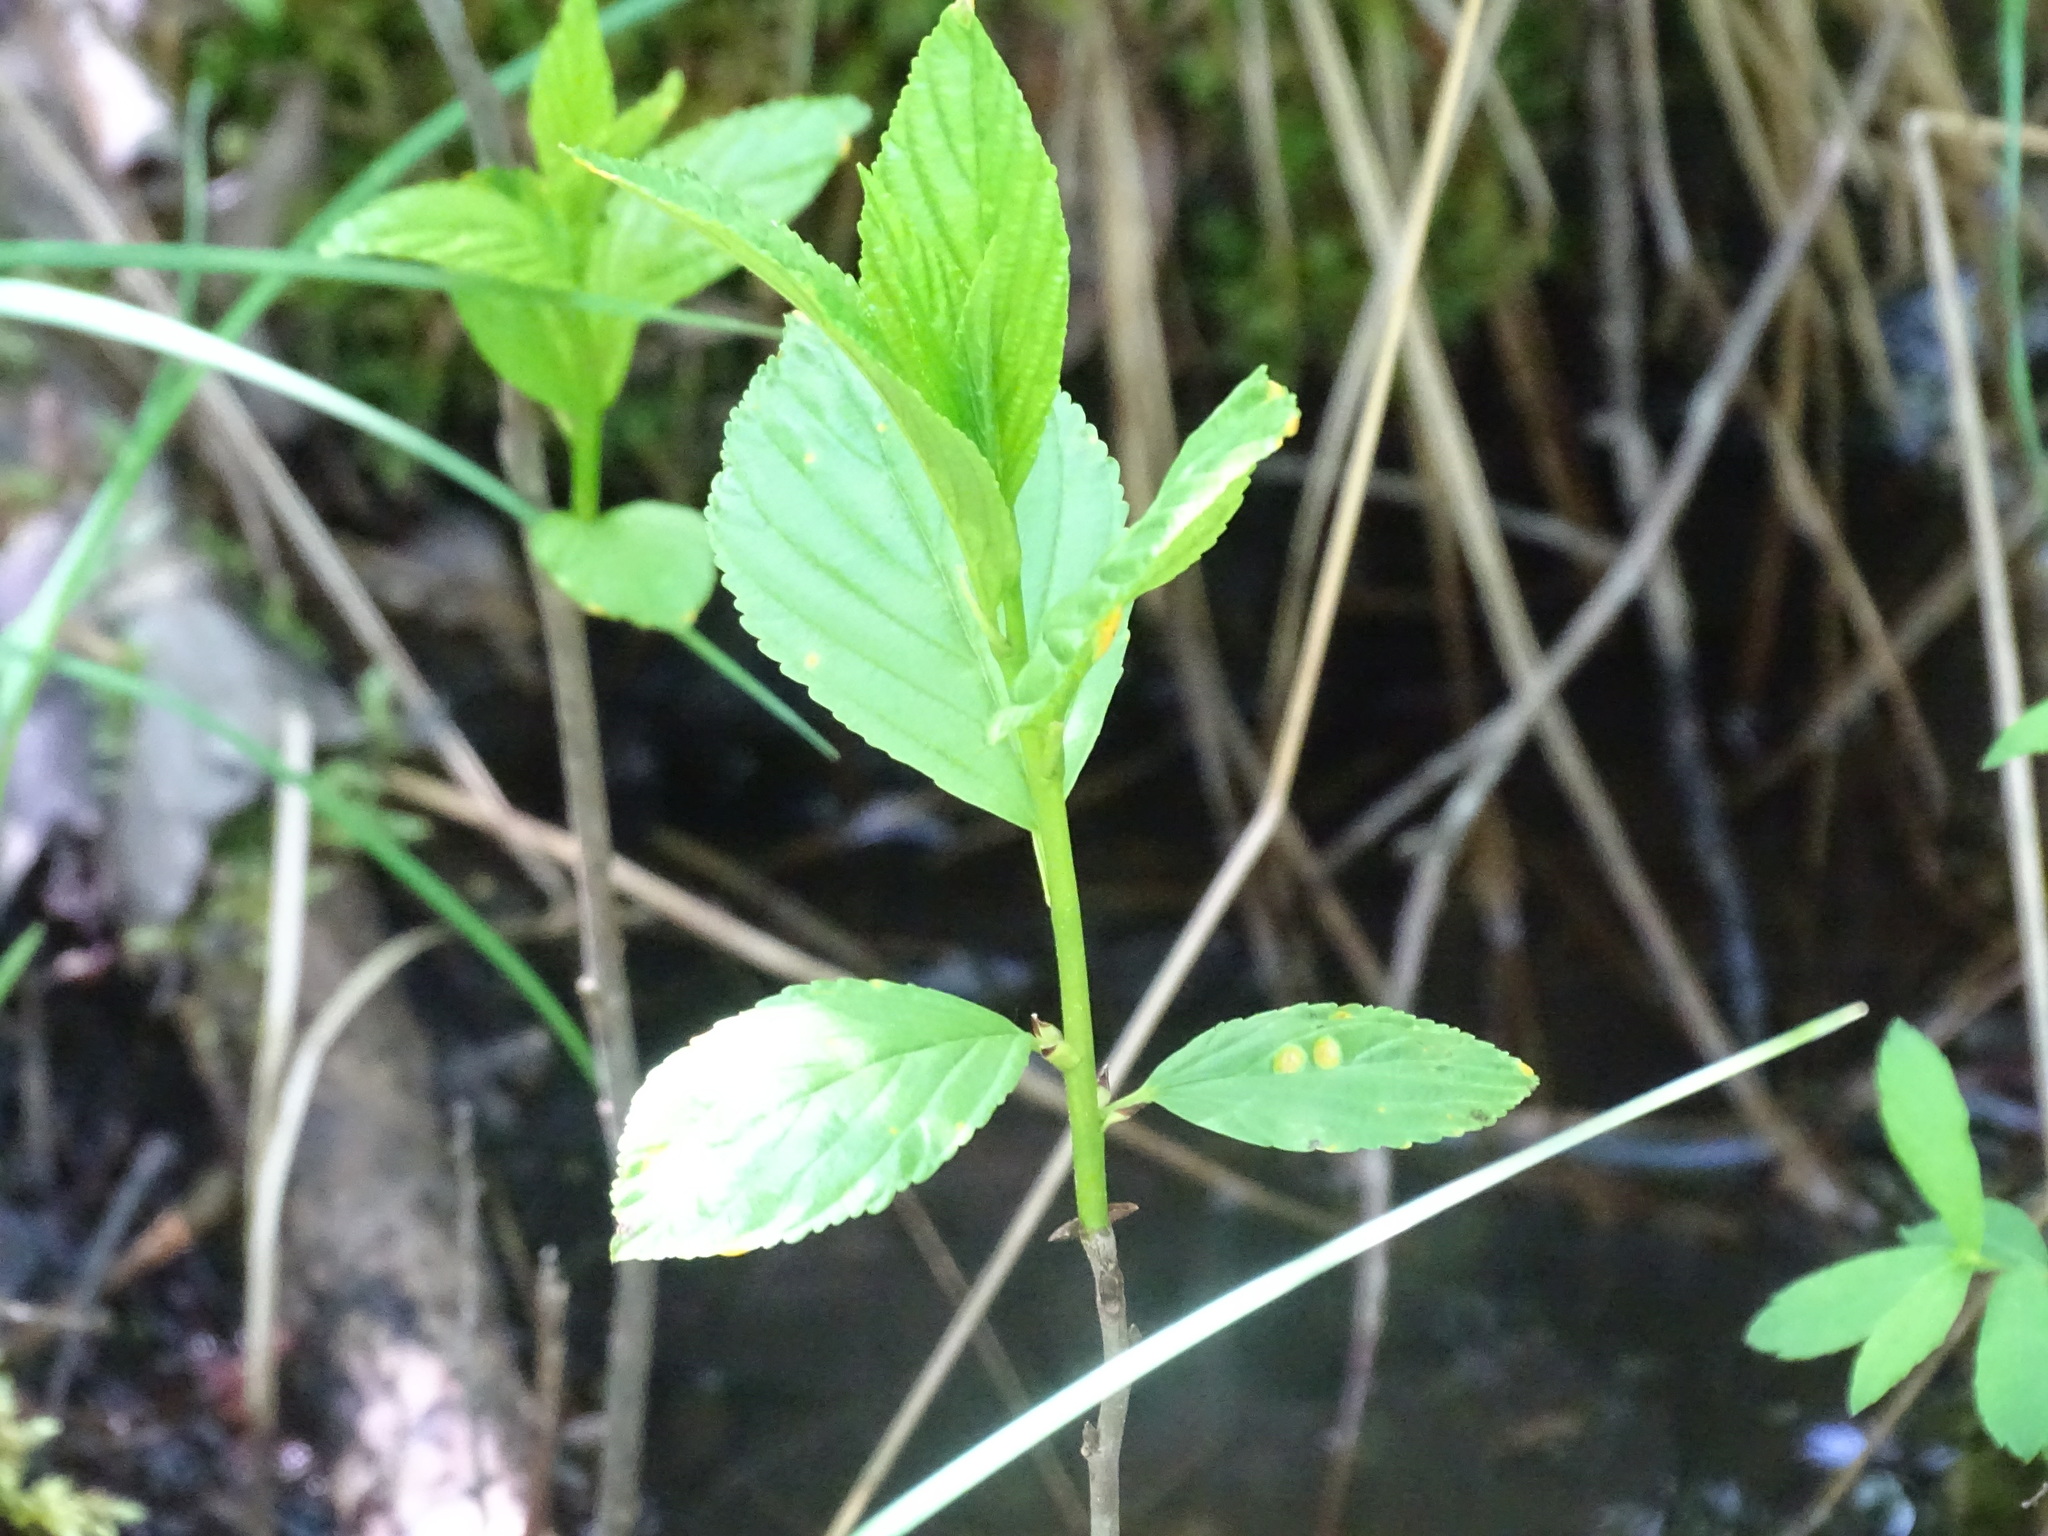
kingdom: Plantae
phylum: Tracheophyta
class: Magnoliopsida
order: Rosales
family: Rhamnaceae
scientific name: Rhamnaceae
